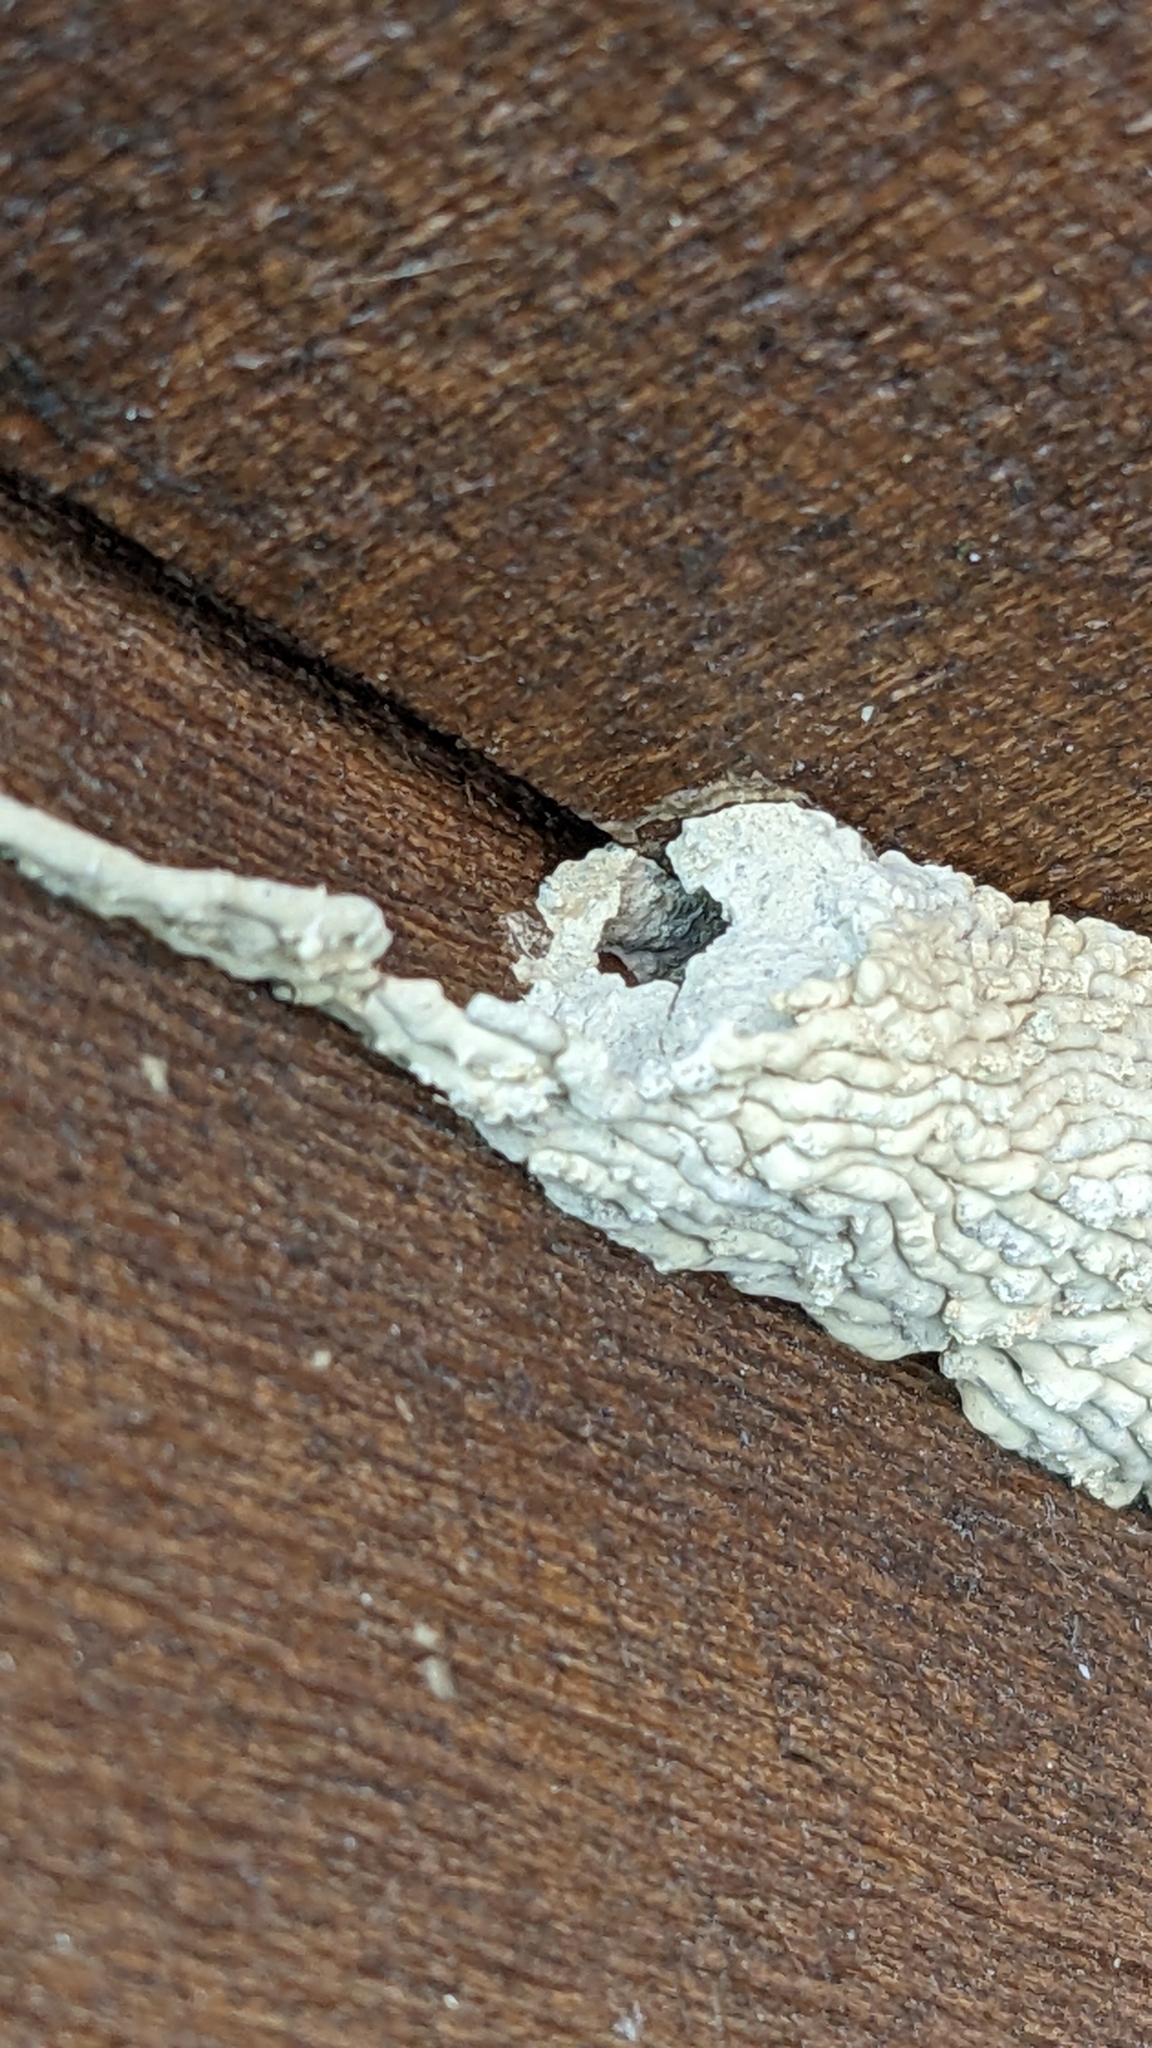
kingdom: Animalia
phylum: Arthropoda
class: Insecta
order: Hymenoptera
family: Crabronidae
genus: Pison
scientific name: Pison spinolae
